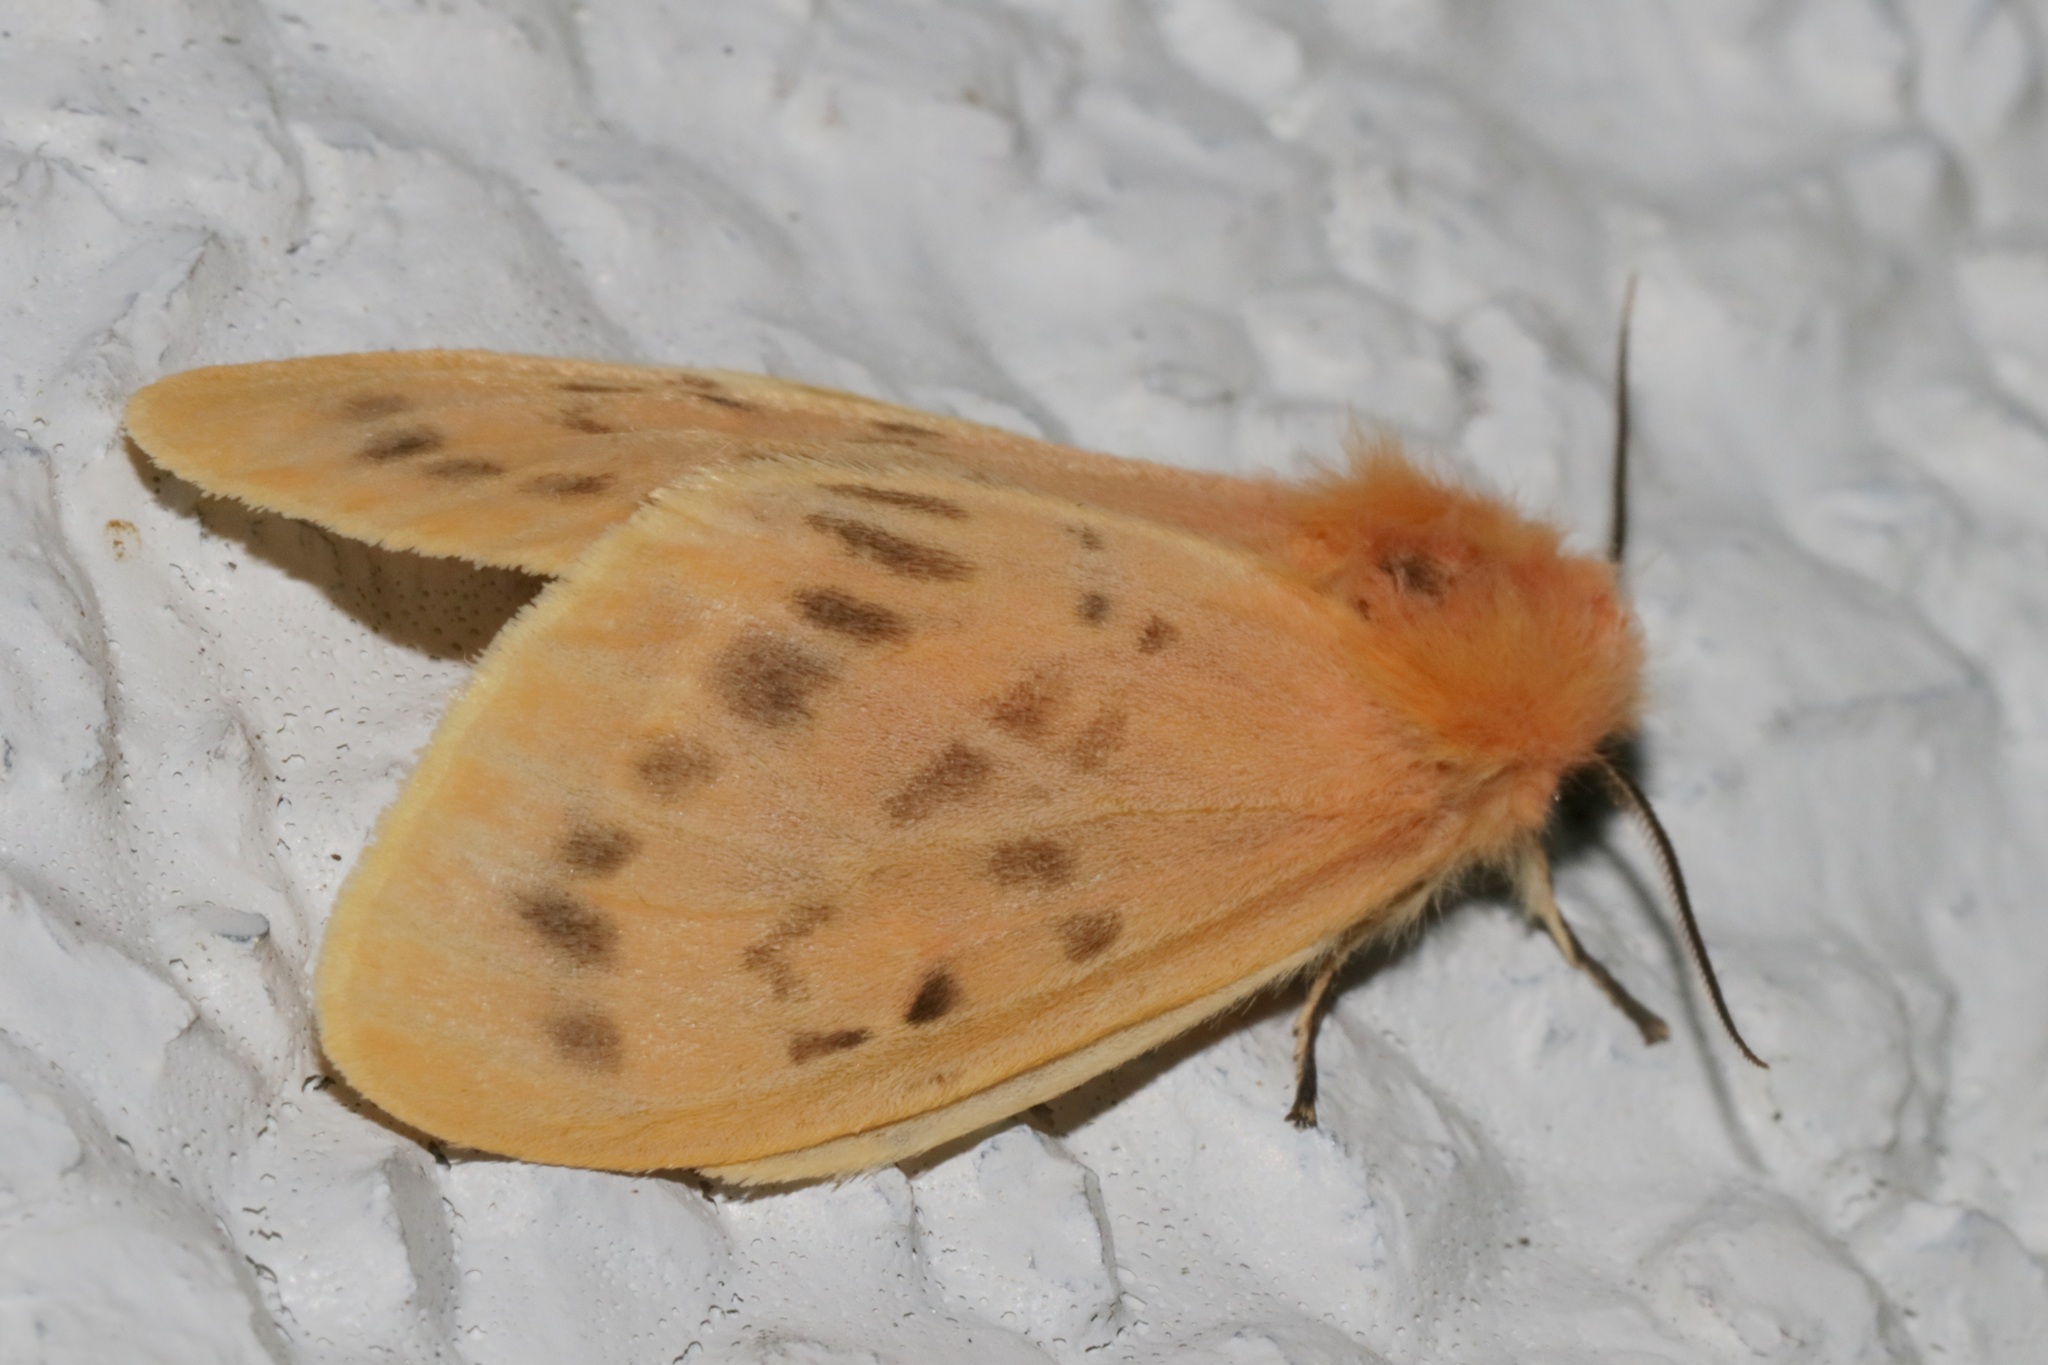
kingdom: Animalia
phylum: Arthropoda
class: Insecta
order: Lepidoptera
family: Erebidae
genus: Lemyra
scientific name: Lemyra alikangensis
